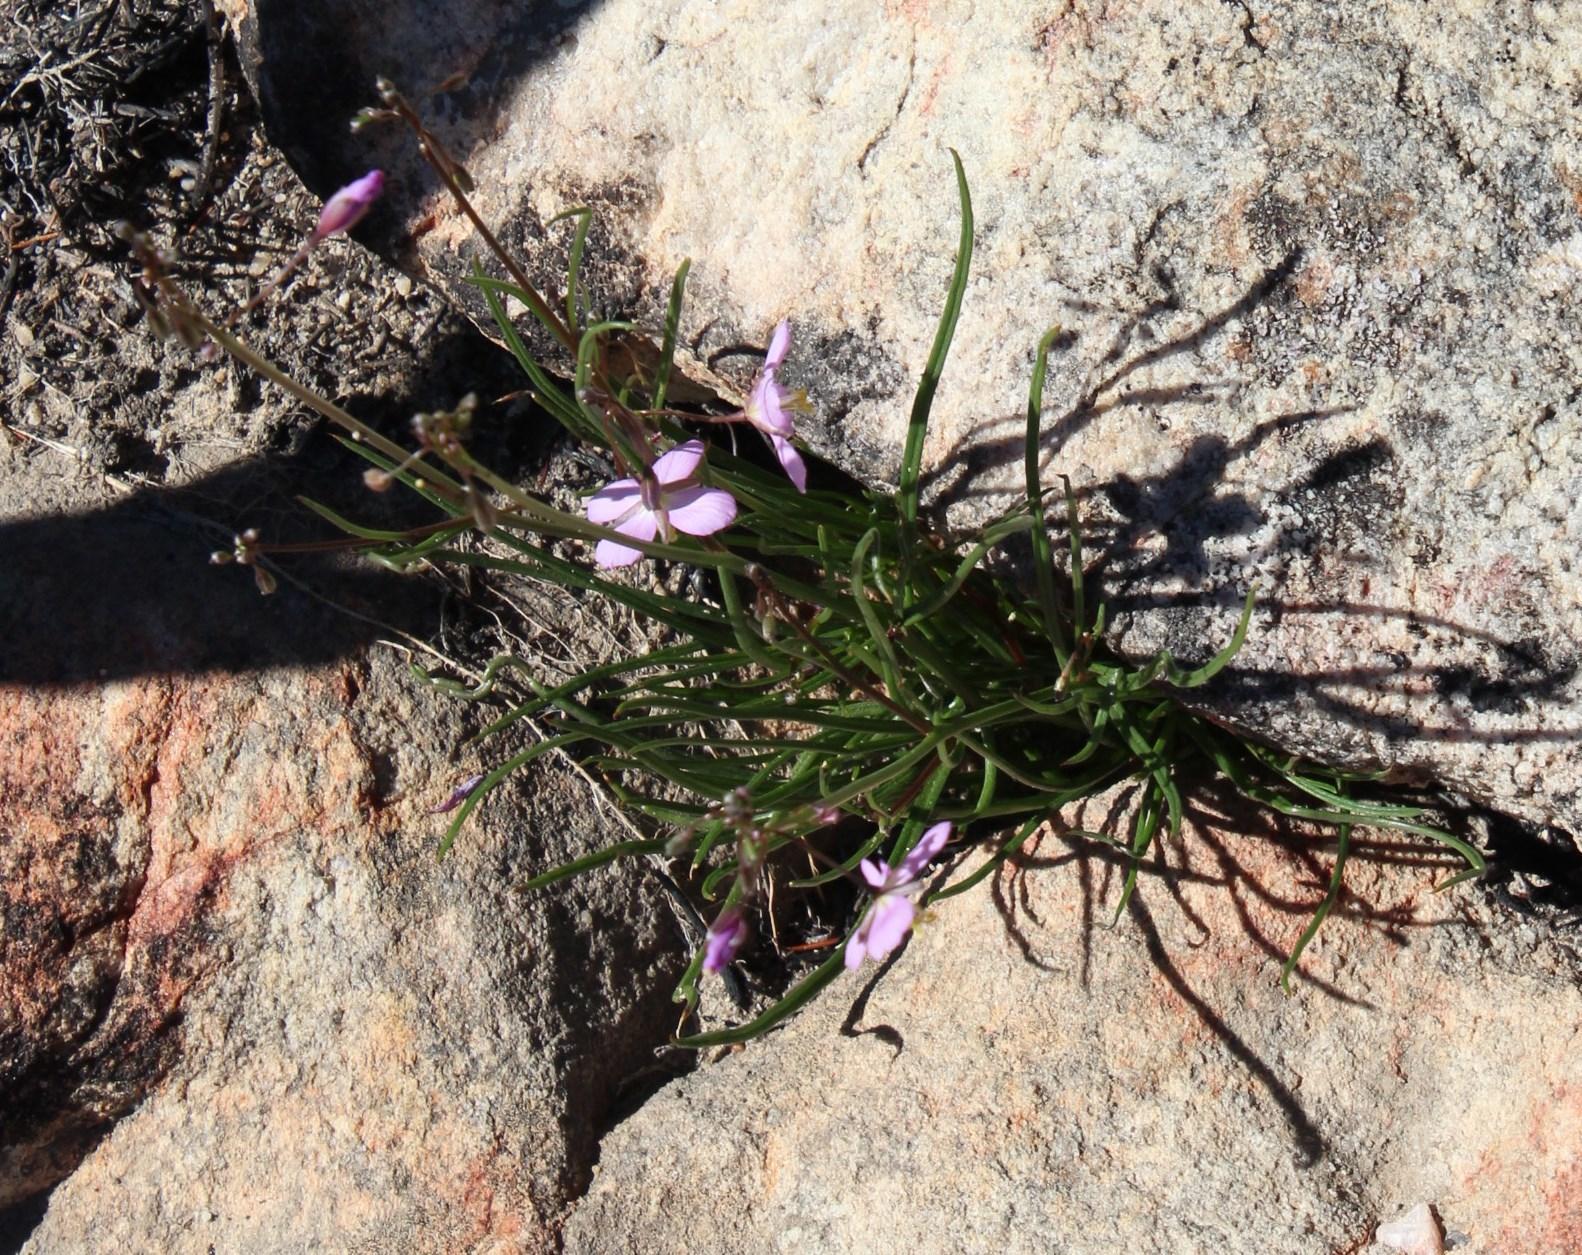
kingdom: Plantae
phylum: Tracheophyta
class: Magnoliopsida
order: Brassicales
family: Brassicaceae
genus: Heliophila
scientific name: Heliophila carnosa
